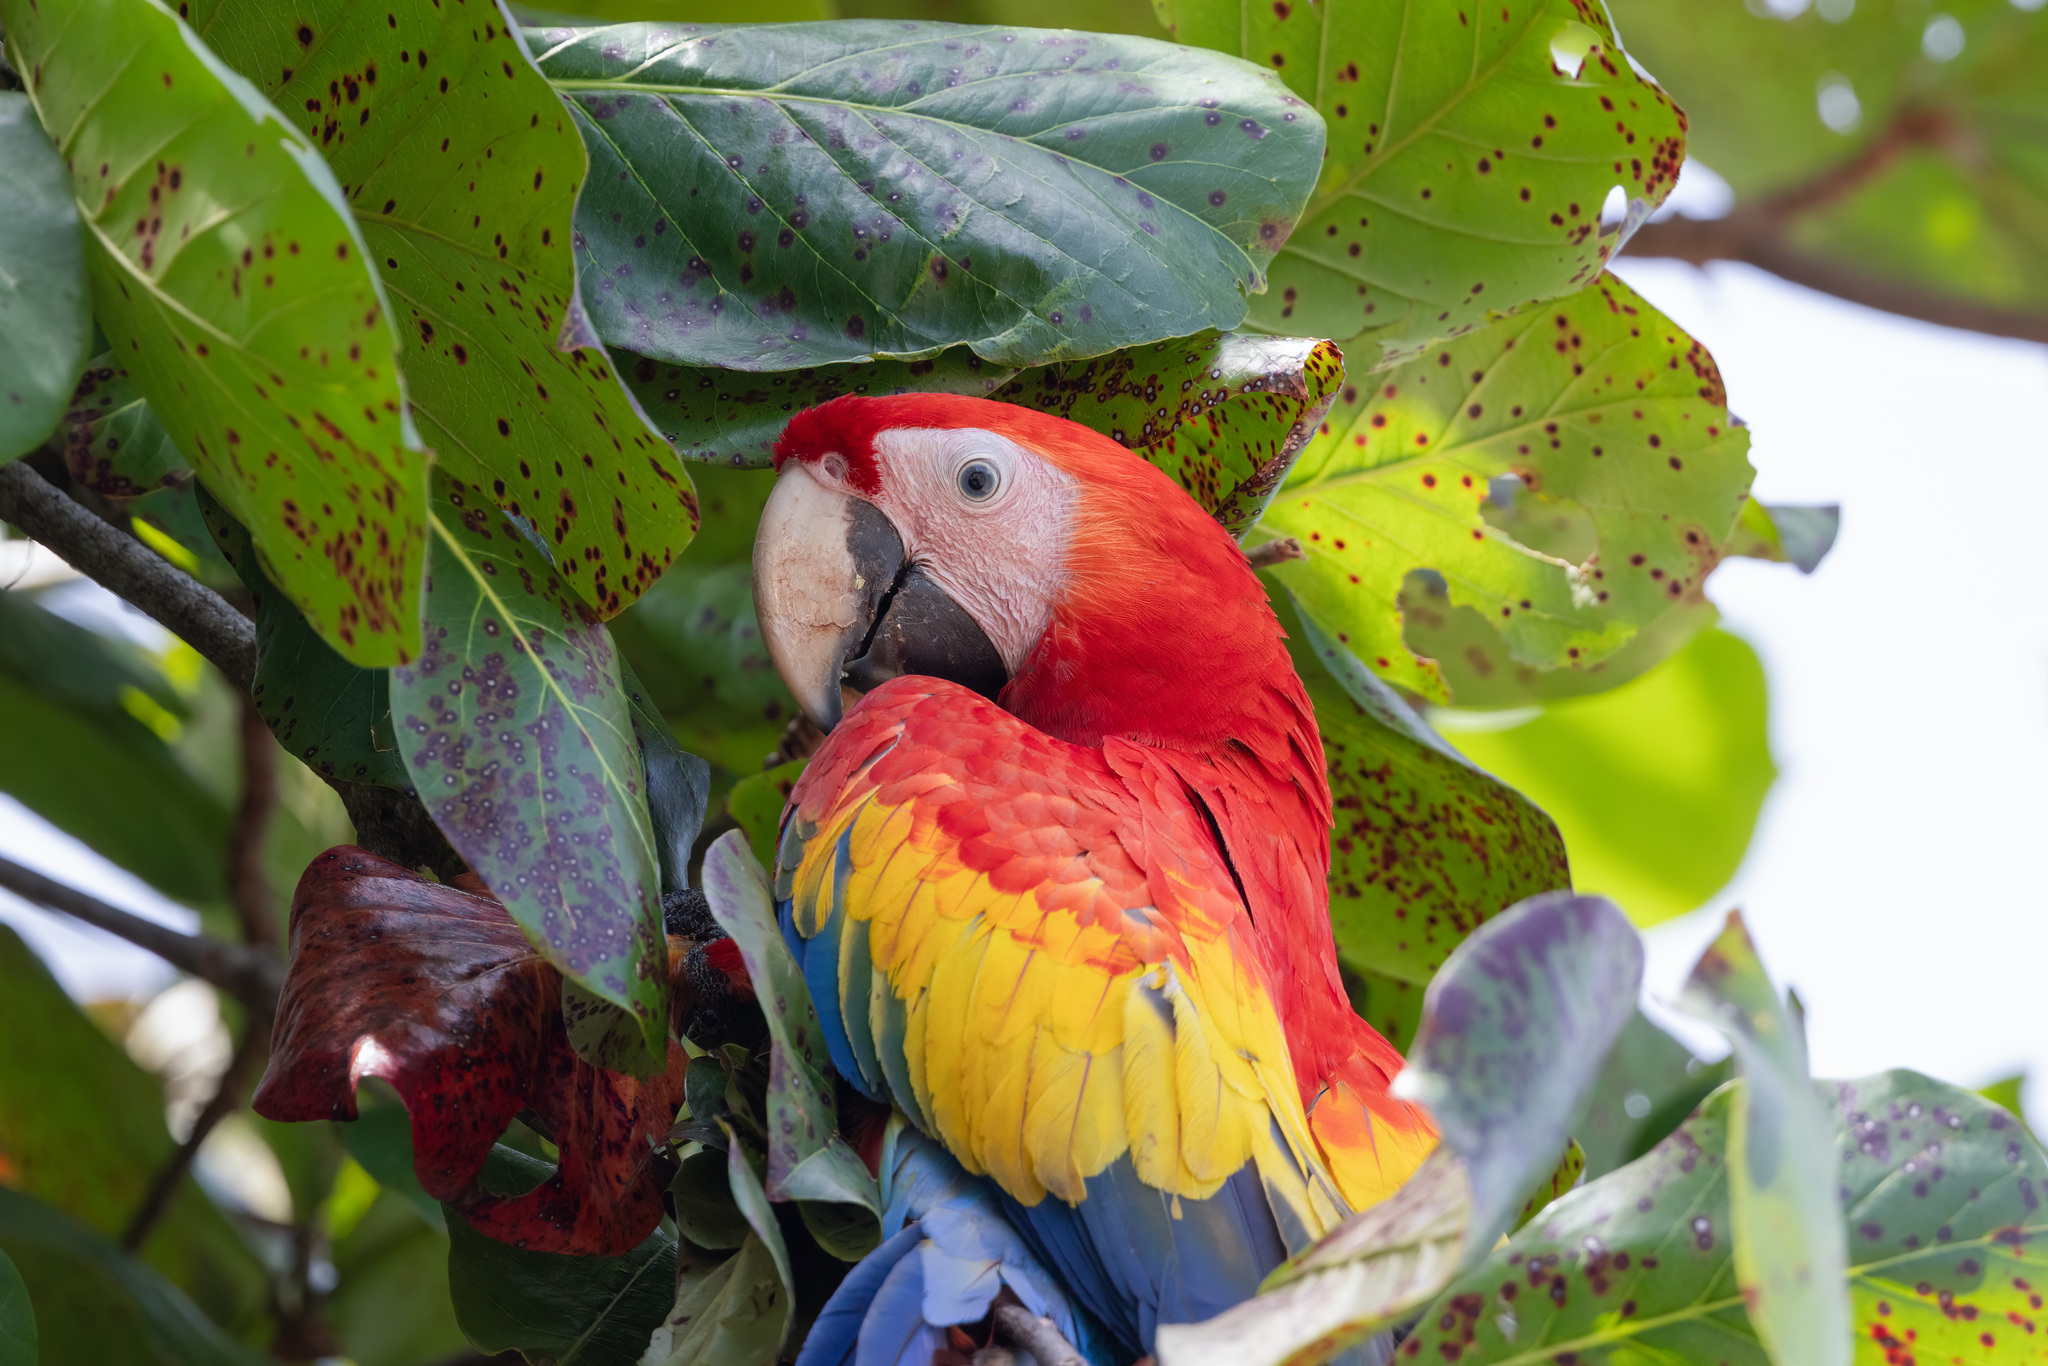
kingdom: Animalia
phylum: Chordata
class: Aves
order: Psittaciformes
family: Psittacidae
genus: Ara
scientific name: Ara macao
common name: Scarlet macaw
